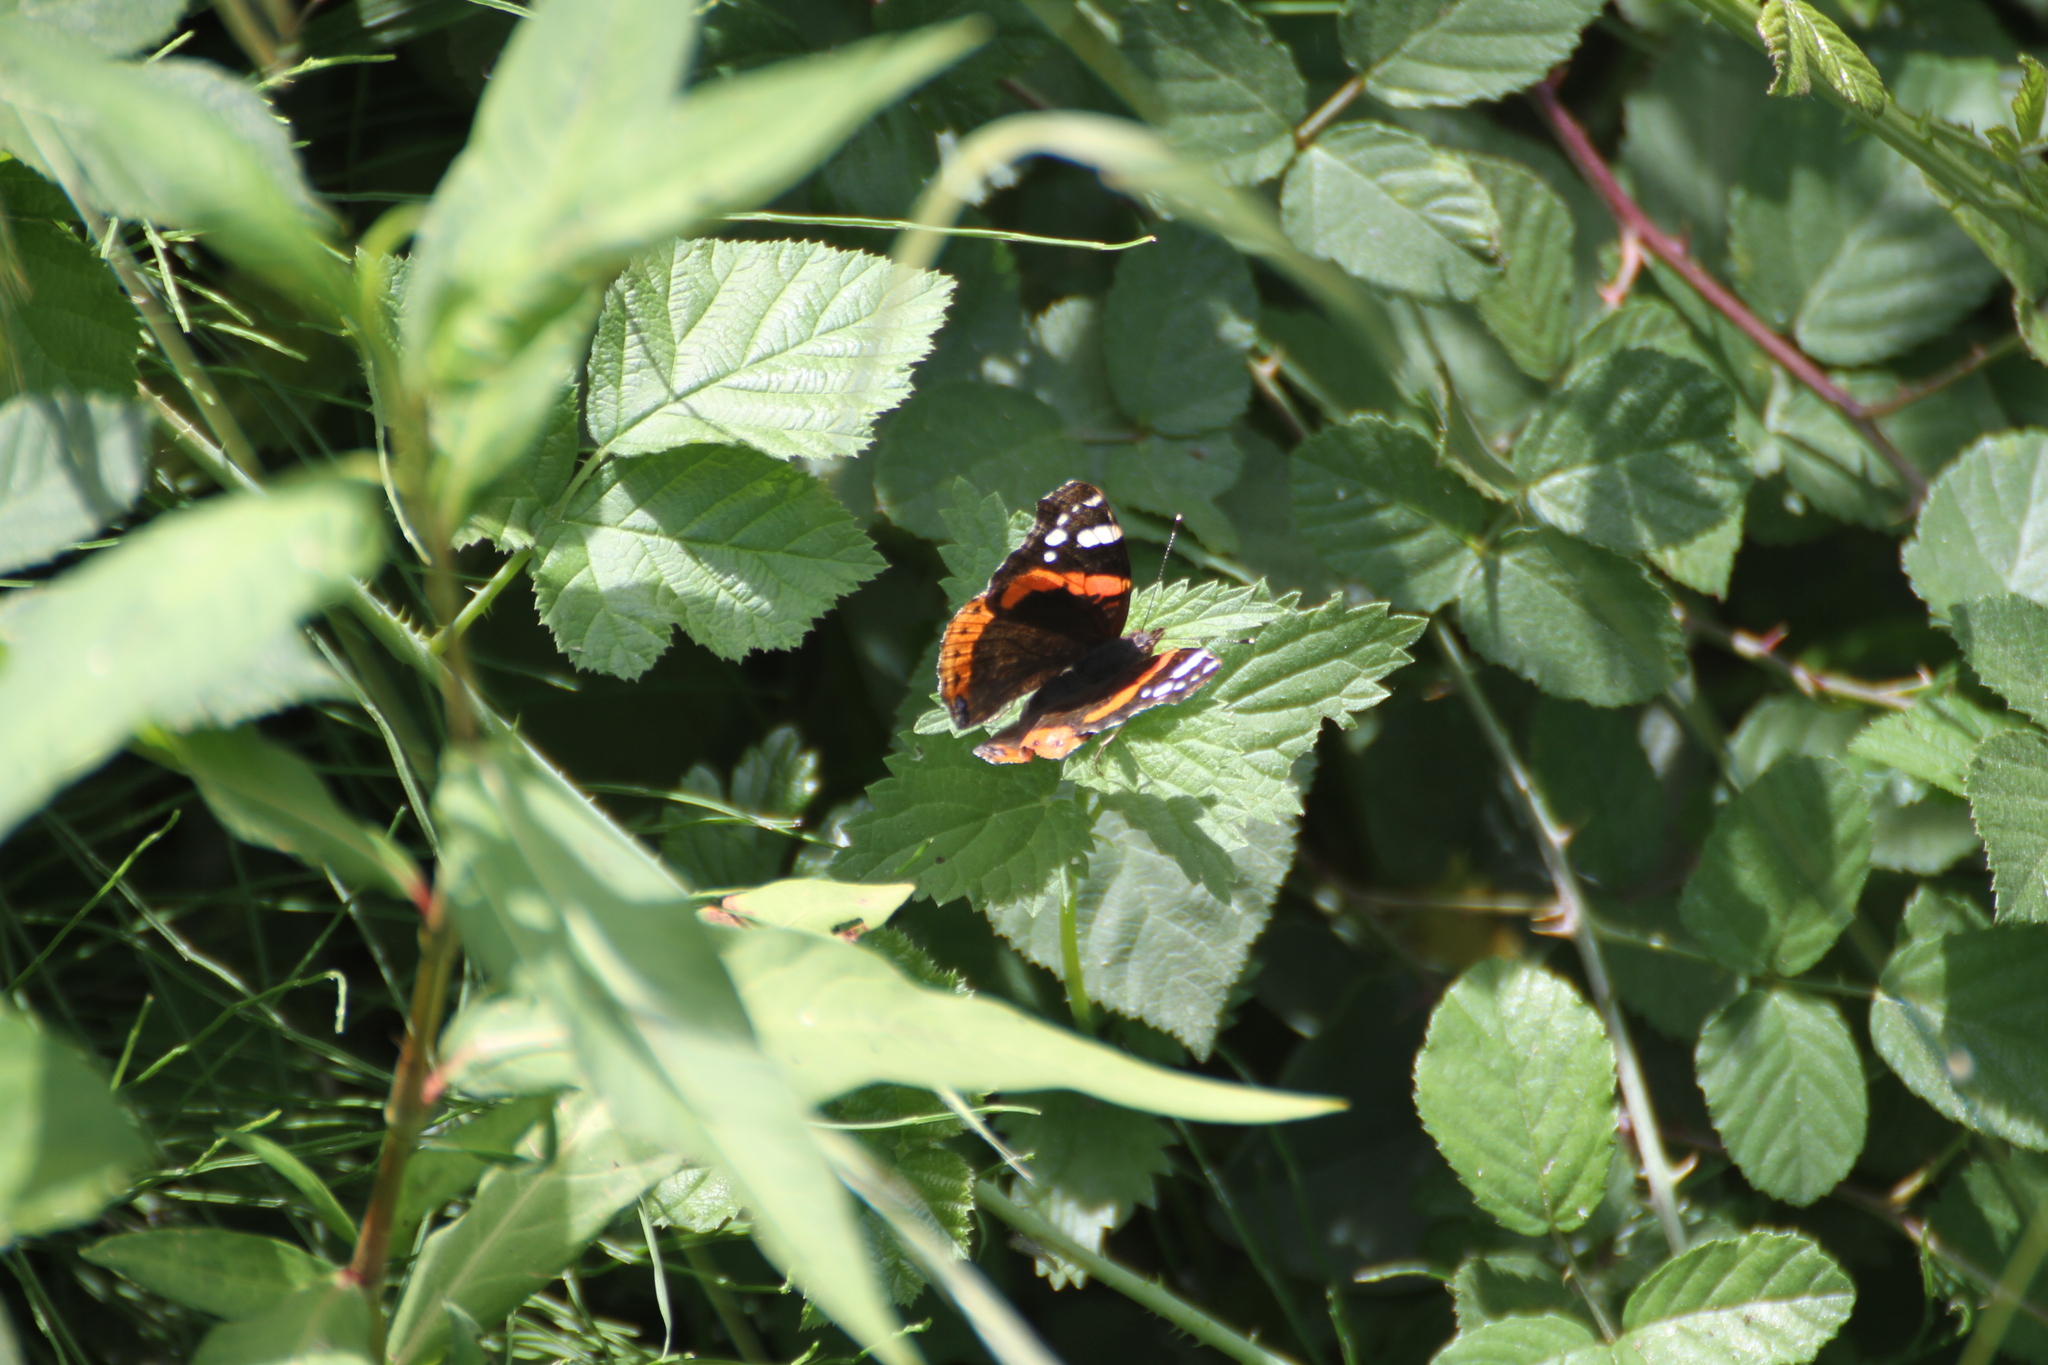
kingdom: Animalia
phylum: Arthropoda
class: Insecta
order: Lepidoptera
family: Nymphalidae
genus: Vanessa
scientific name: Vanessa atalanta
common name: Red admiral
